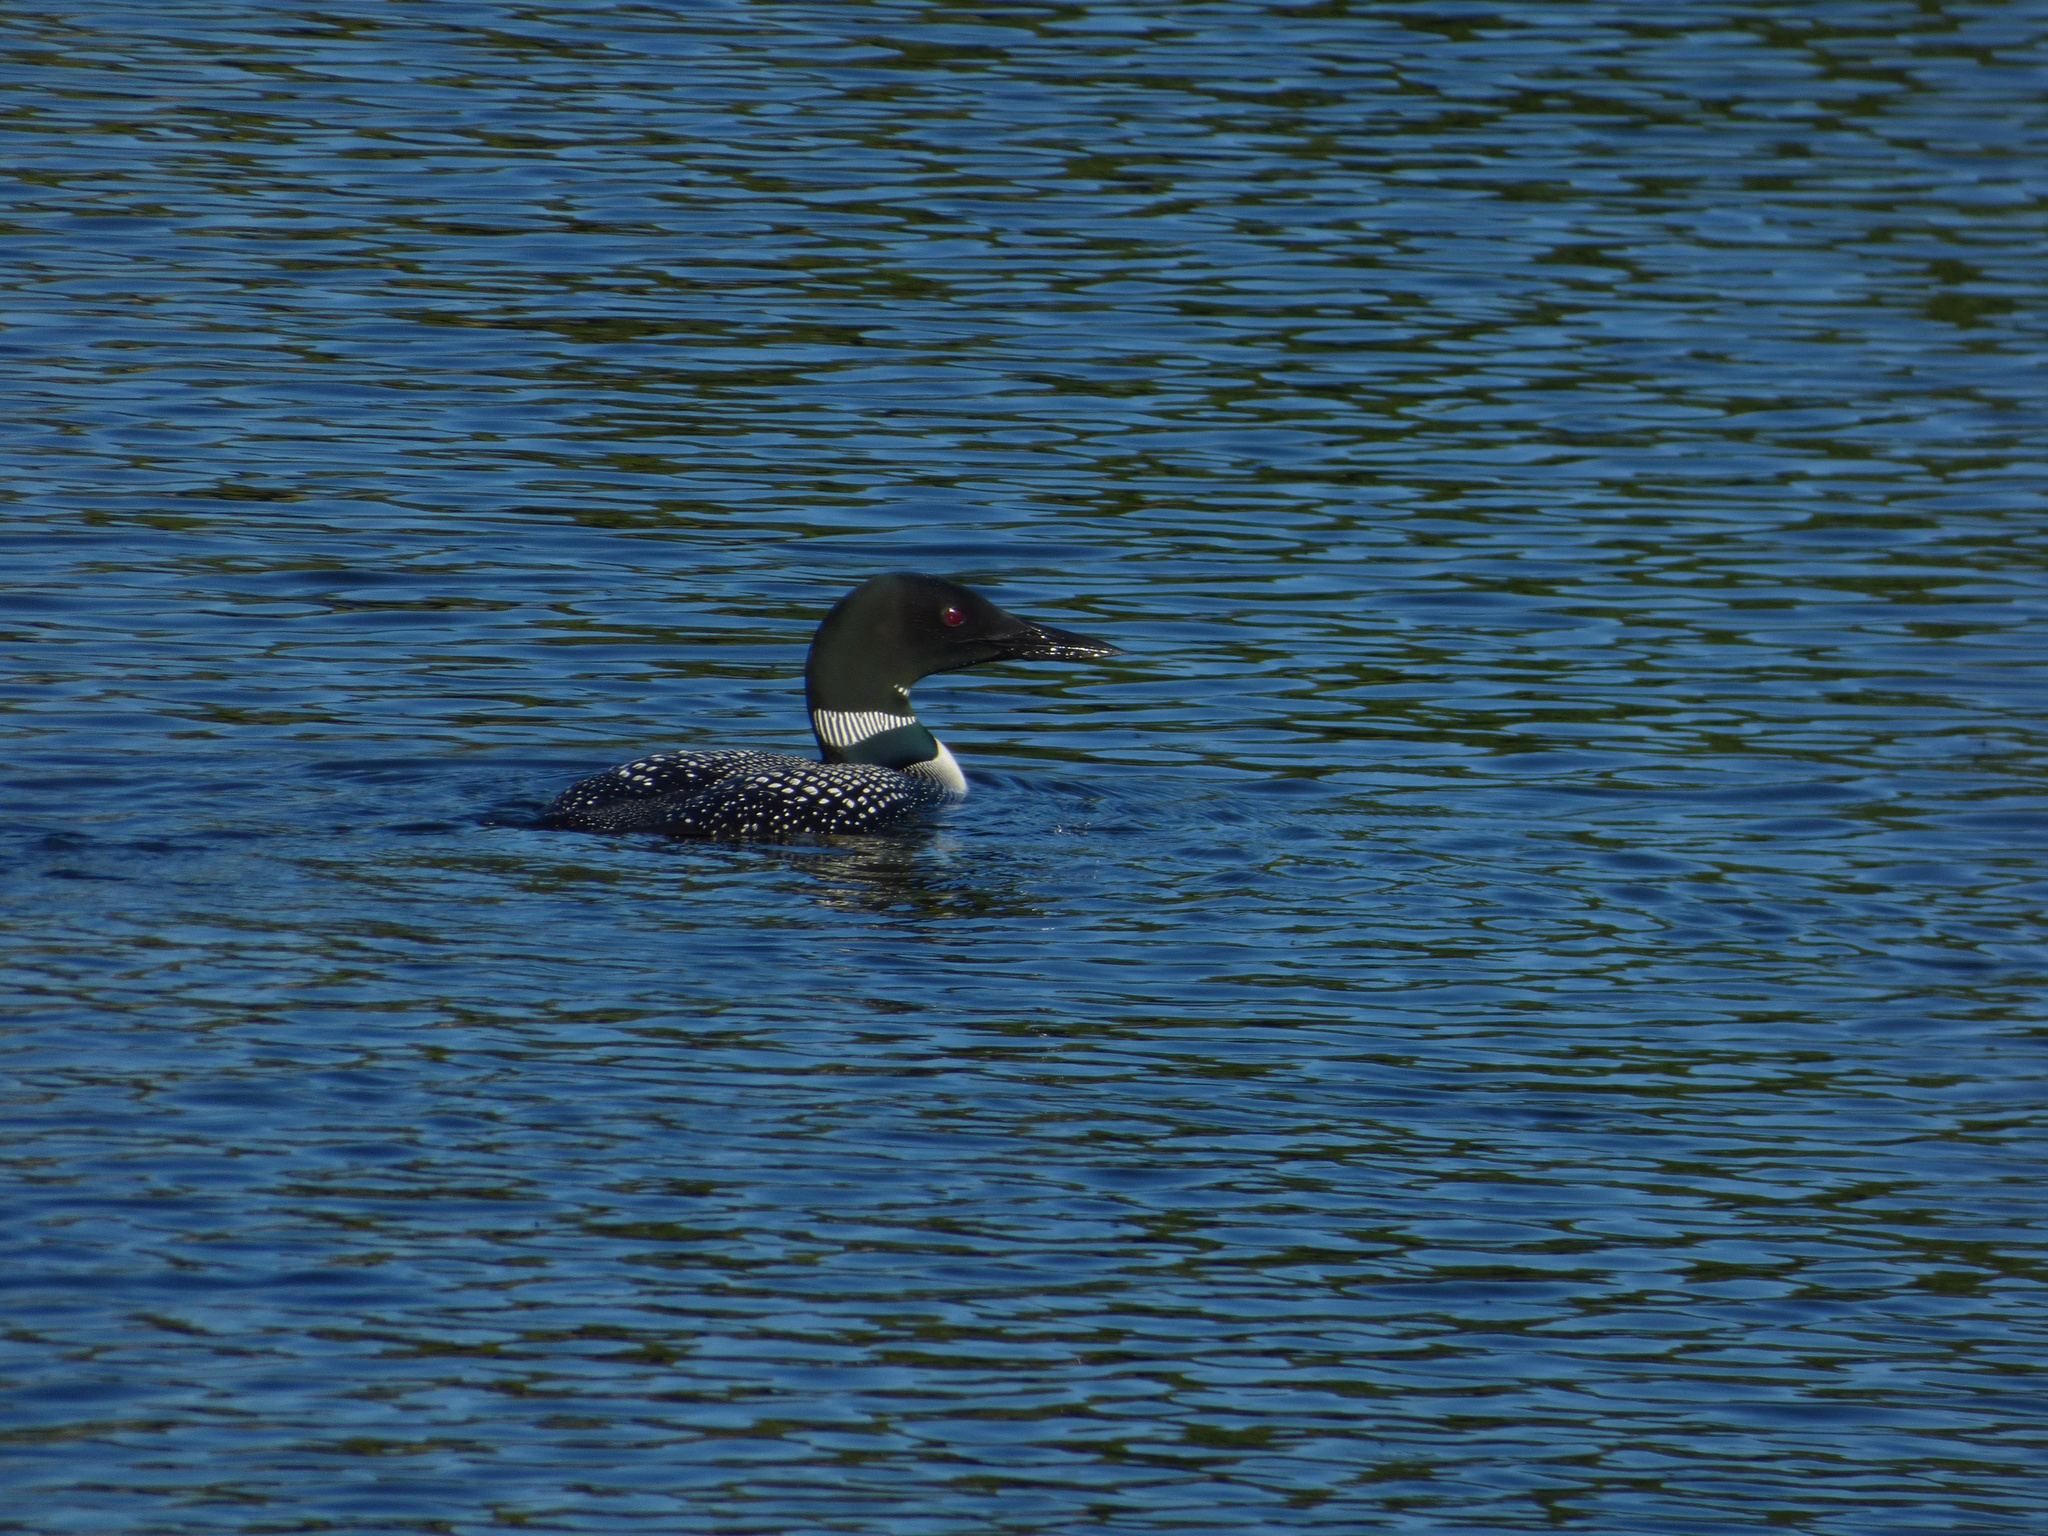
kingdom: Animalia
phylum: Chordata
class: Aves
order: Gaviiformes
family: Gaviidae
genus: Gavia
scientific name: Gavia immer
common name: Common loon
